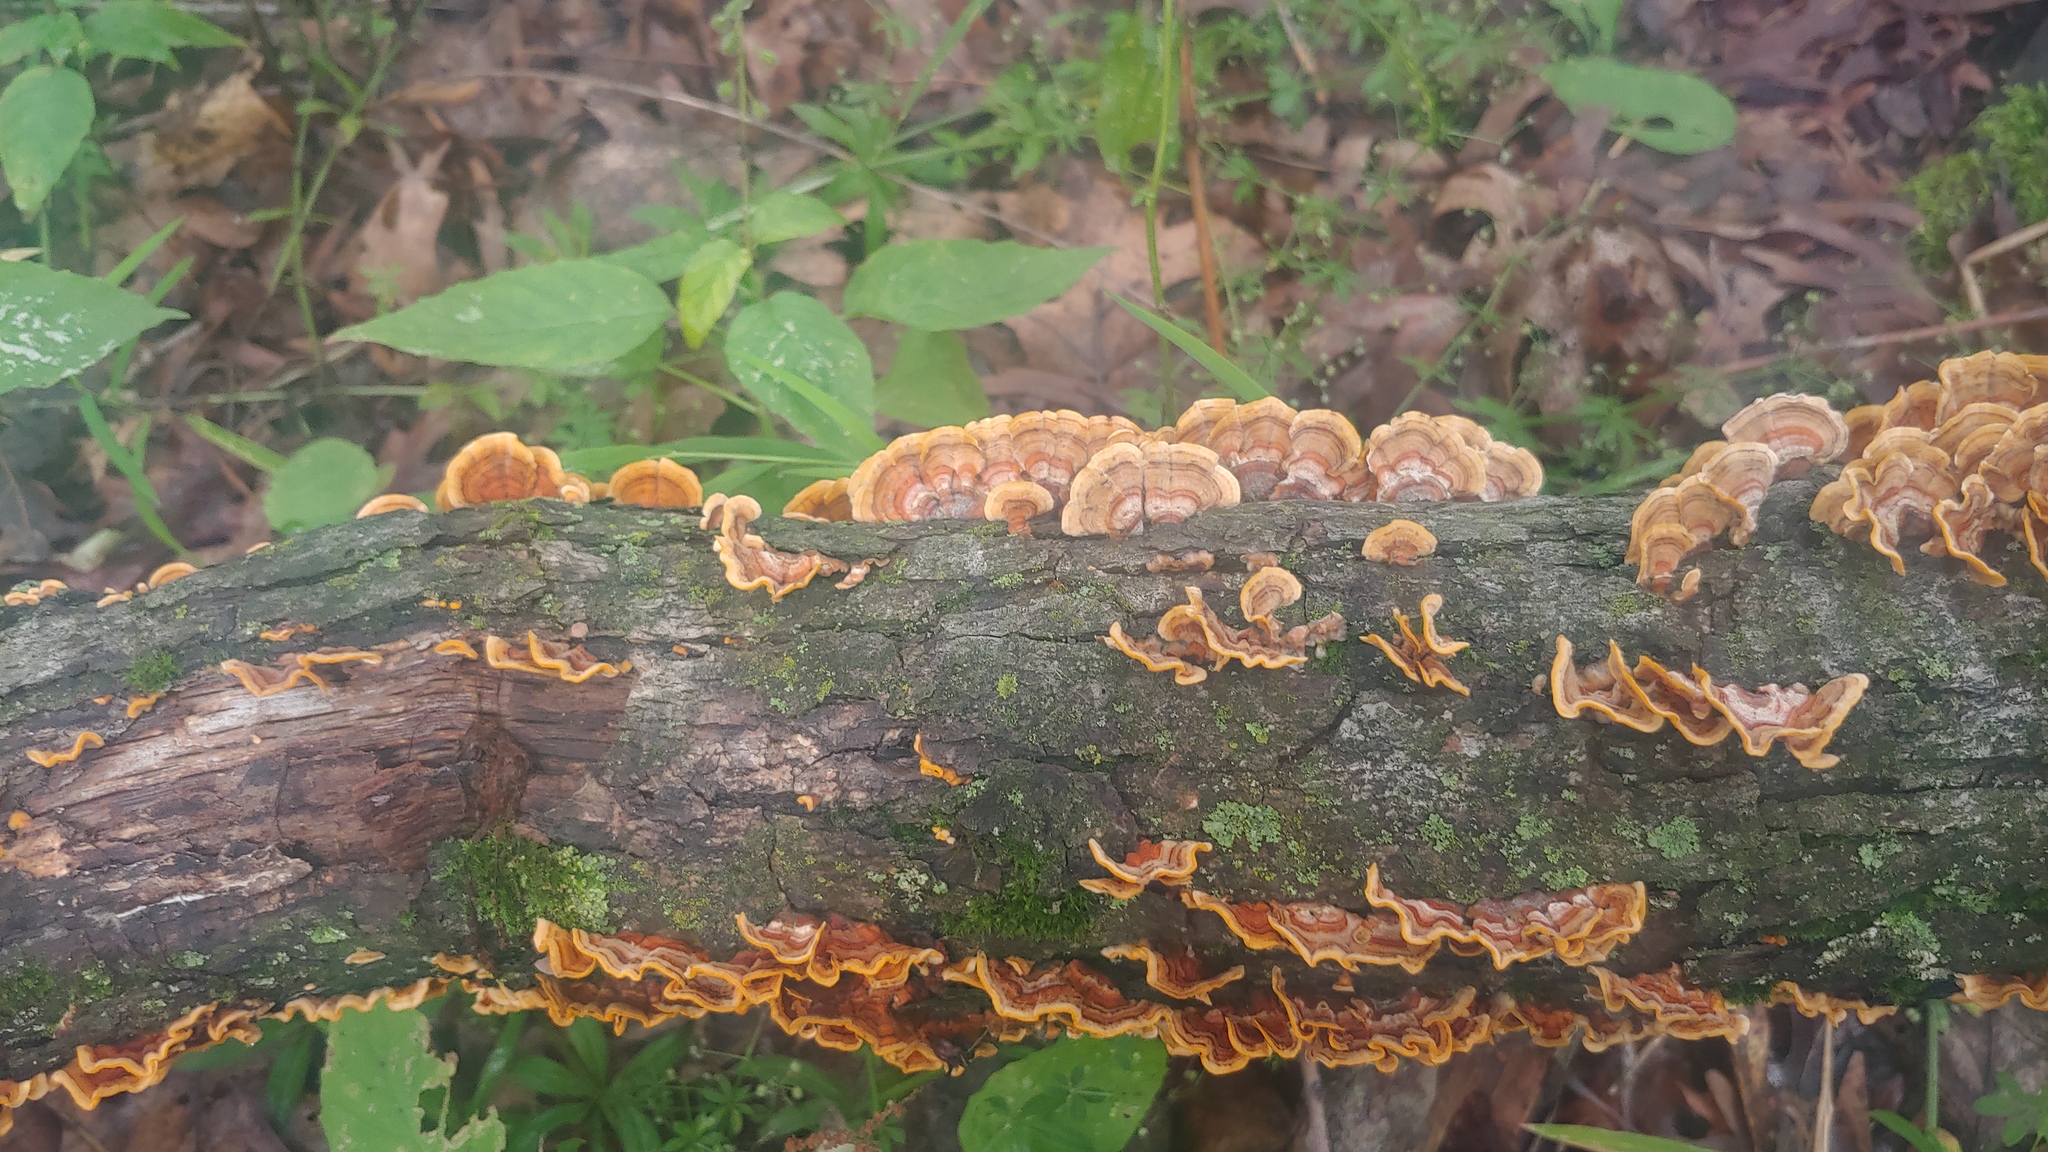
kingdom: Fungi
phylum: Basidiomycota
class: Agaricomycetes
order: Russulales
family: Stereaceae
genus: Stereum
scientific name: Stereum complicatum
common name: Crowded parchment
